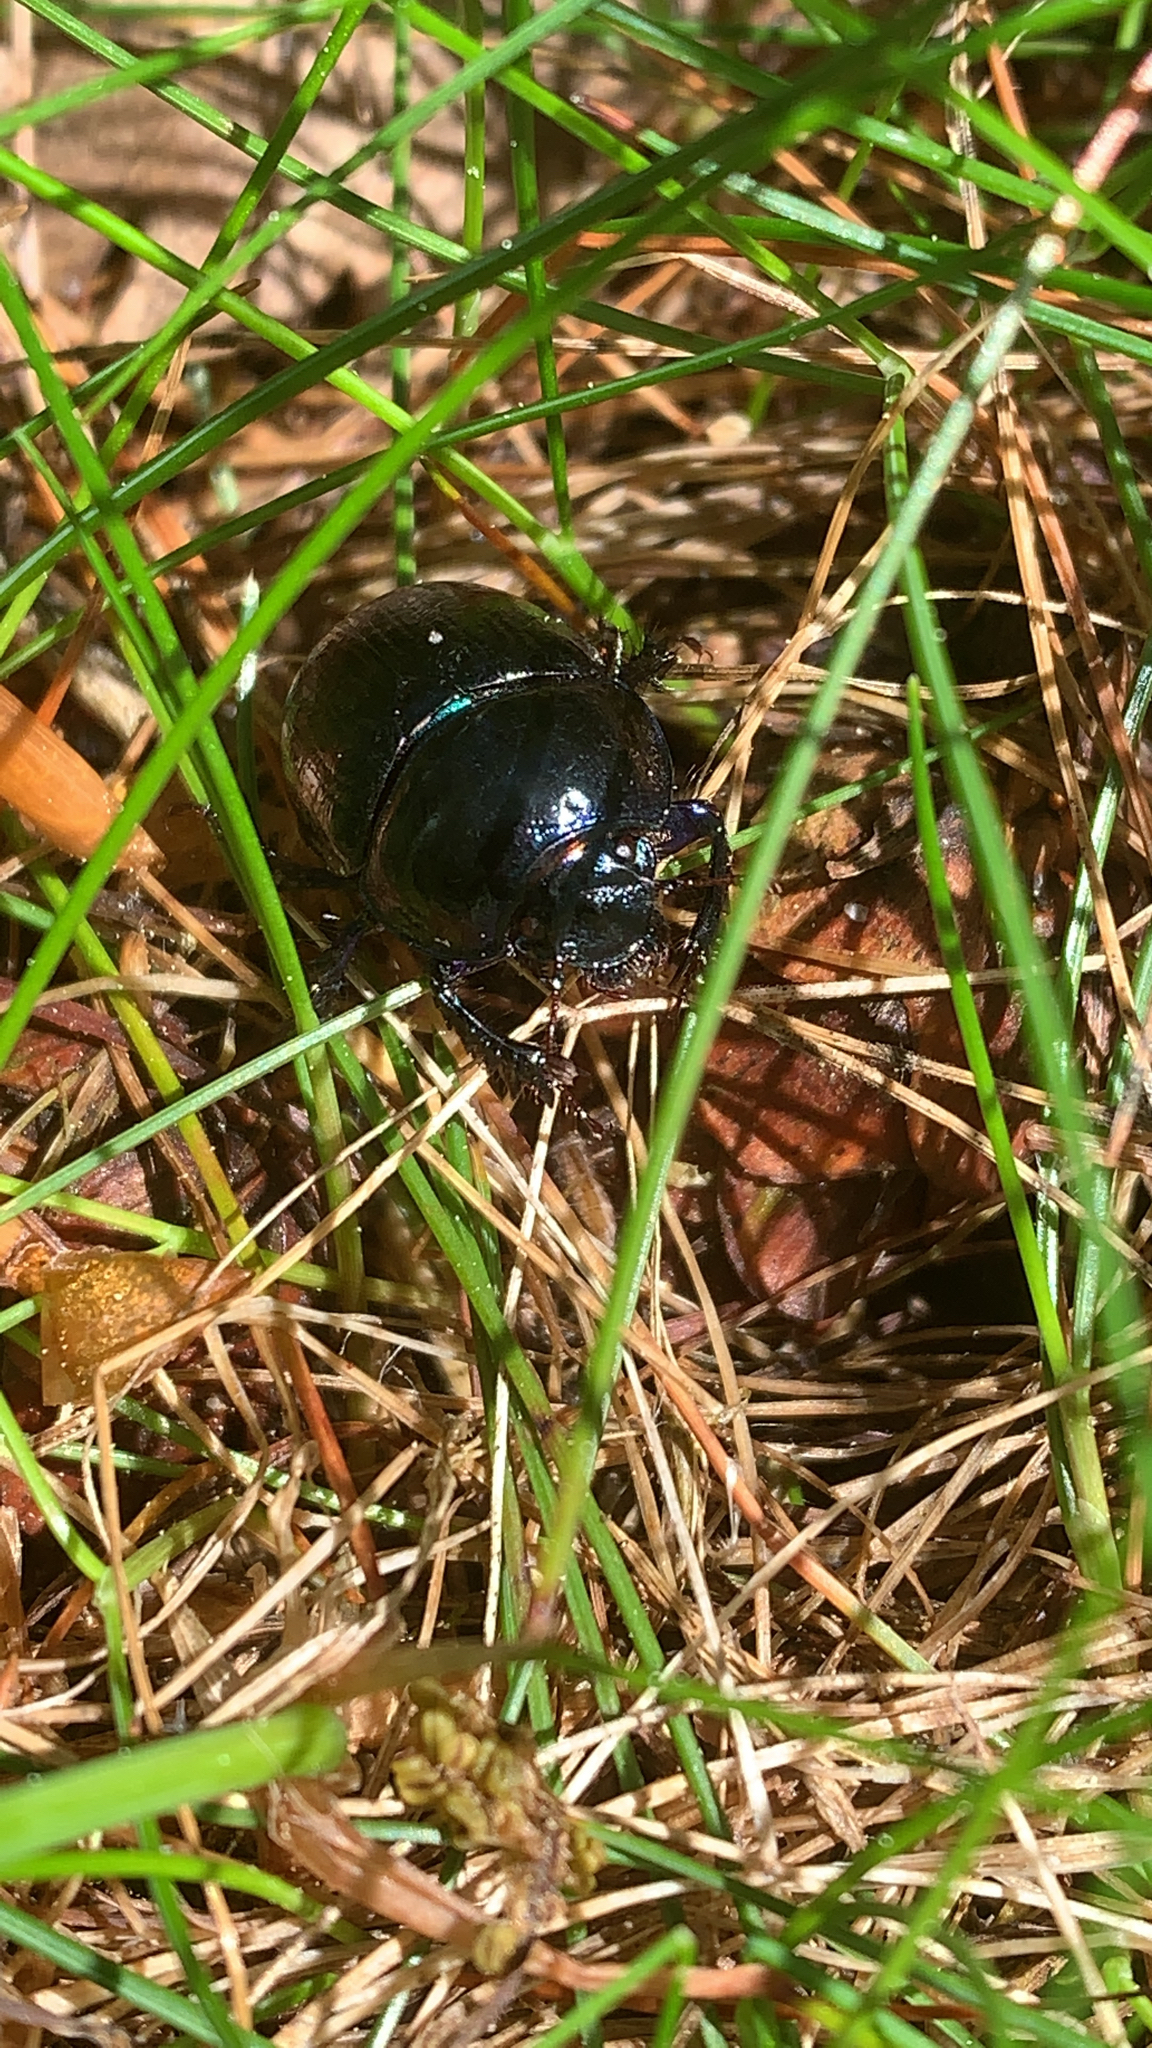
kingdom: Animalia
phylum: Arthropoda
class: Insecta
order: Coleoptera
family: Geotrupidae
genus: Anoplotrupes
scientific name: Anoplotrupes stercorosus
